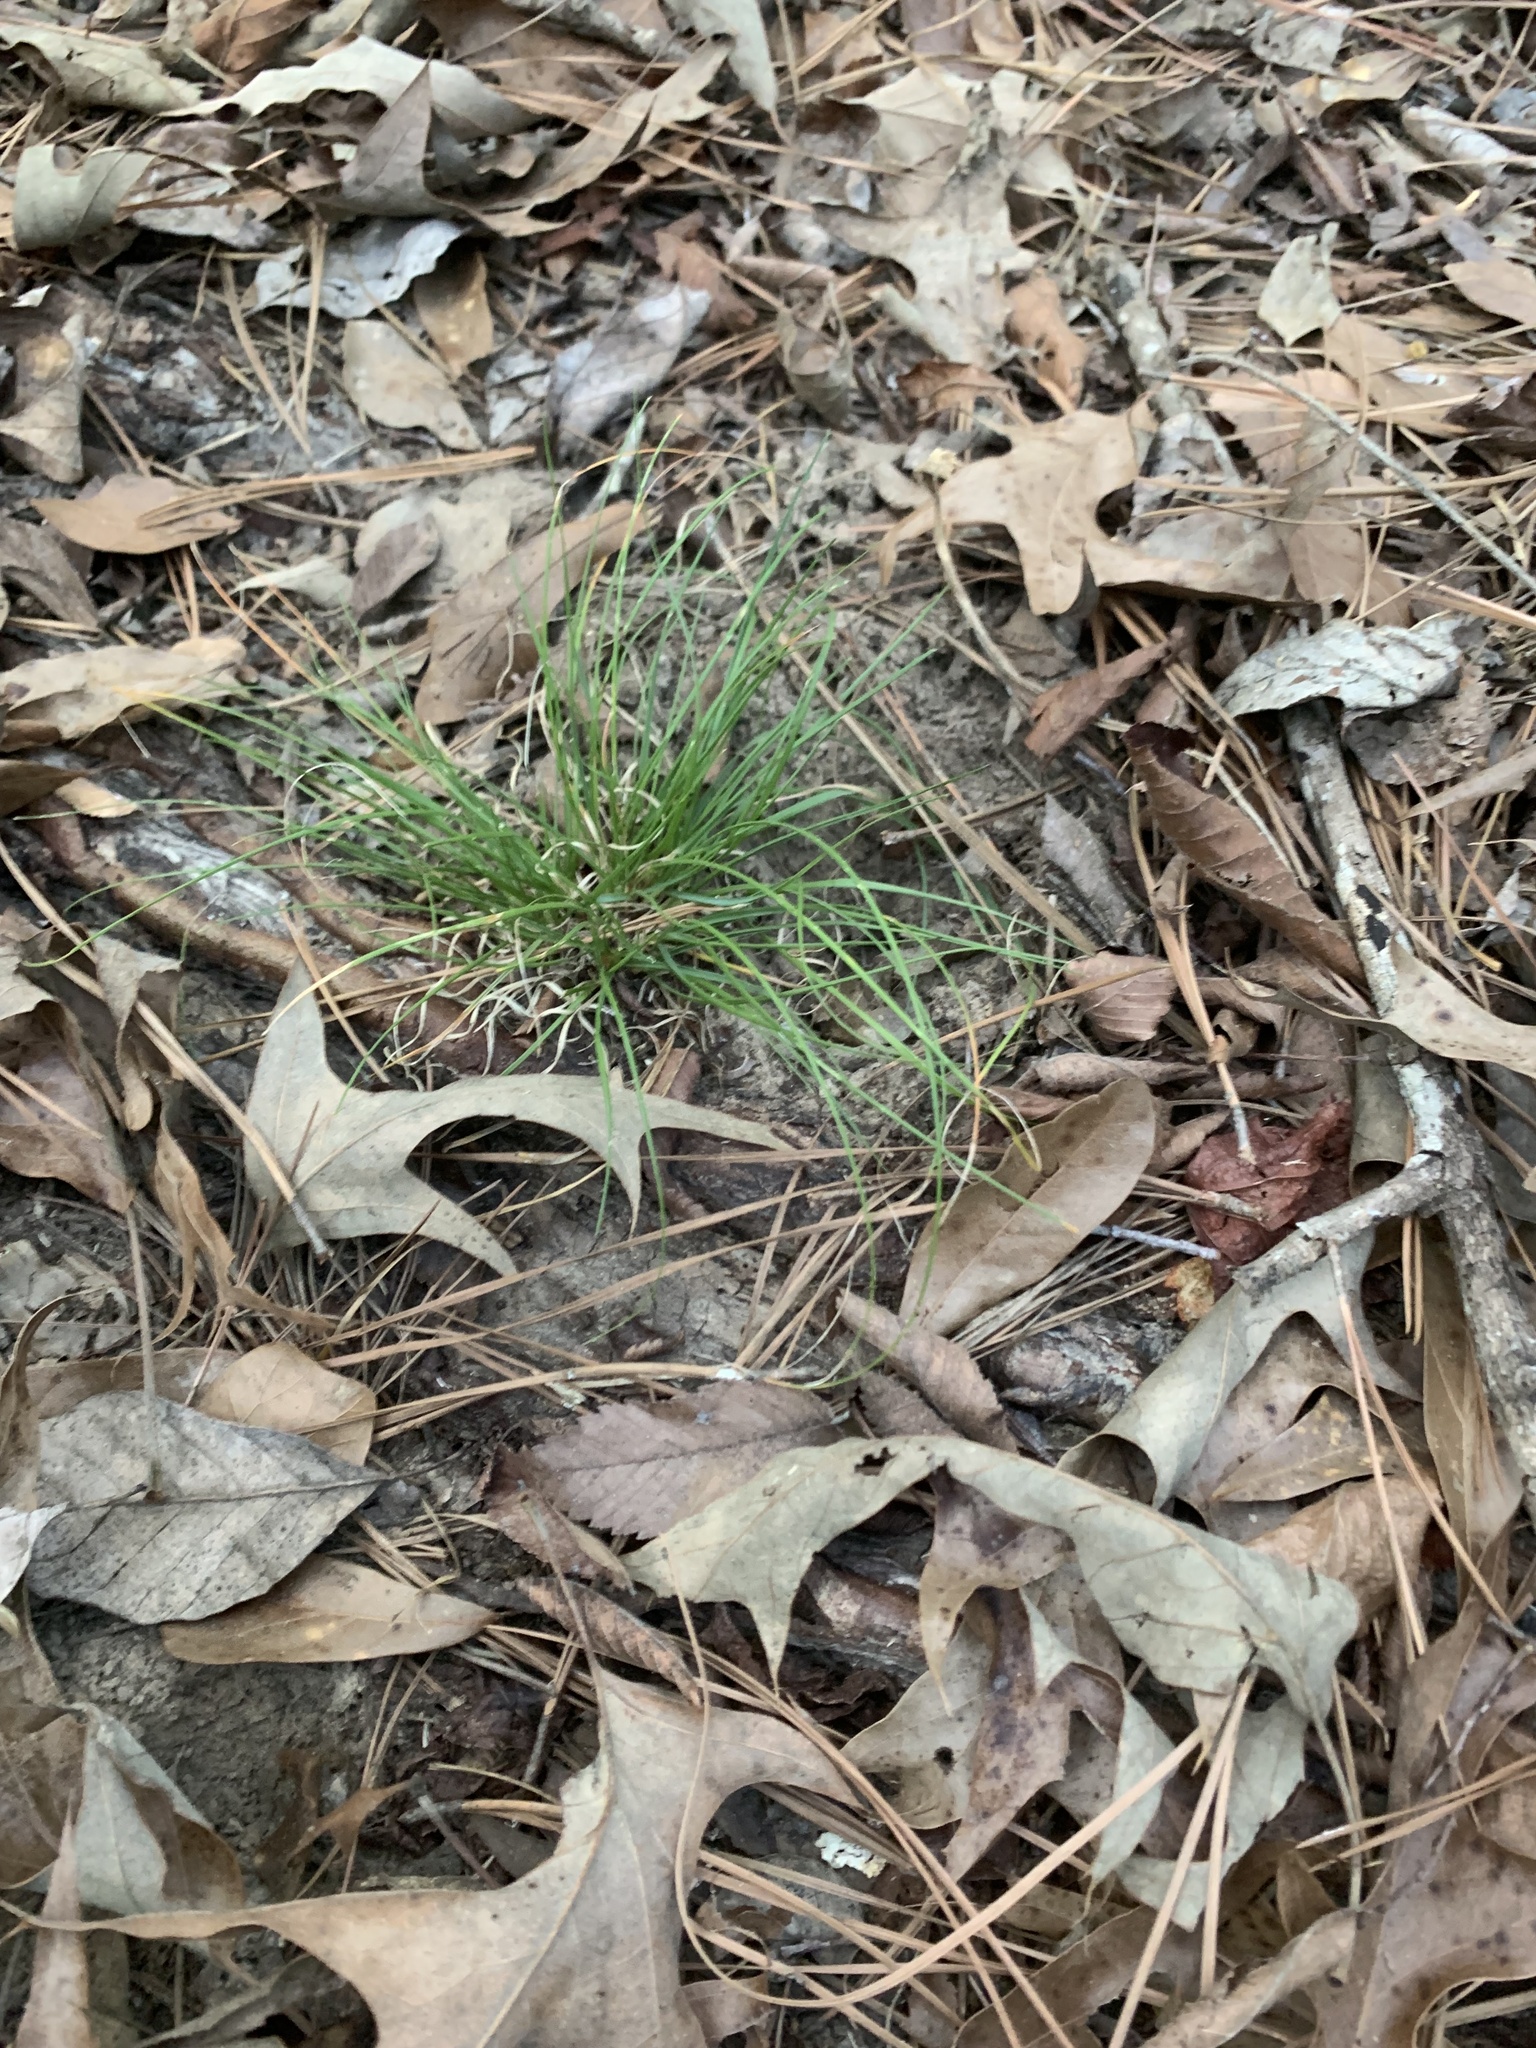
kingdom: Plantae
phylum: Tracheophyta
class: Liliopsida
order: Poales
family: Poaceae
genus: Danthonia
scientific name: Danthonia spicata
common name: Common wild oatgrass
